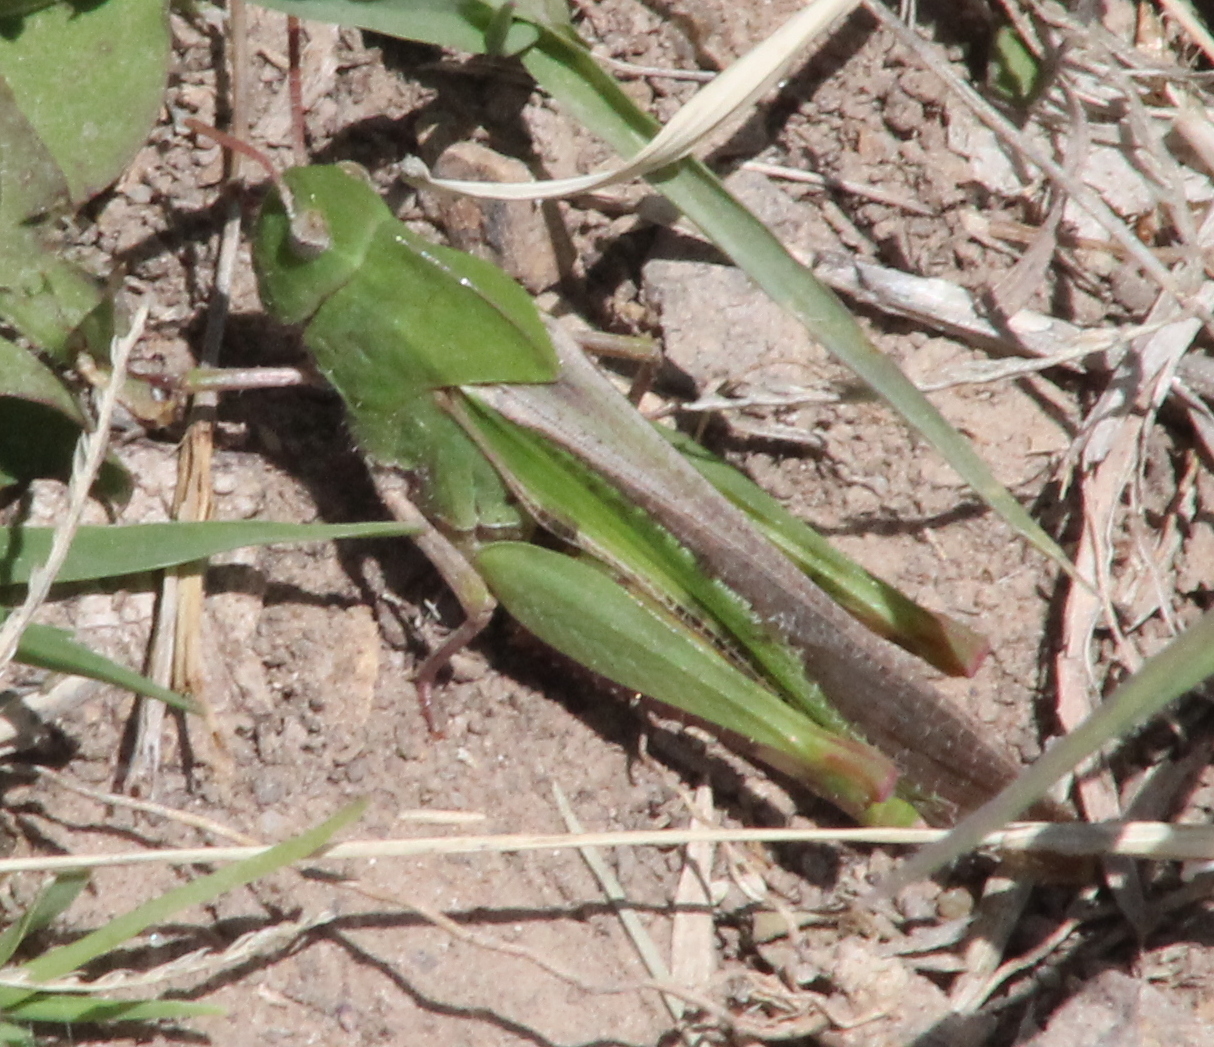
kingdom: Animalia
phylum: Arthropoda
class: Insecta
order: Orthoptera
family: Acrididae
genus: Chortophaga
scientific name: Chortophaga viridifasciata
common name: Green-striped grasshopper
